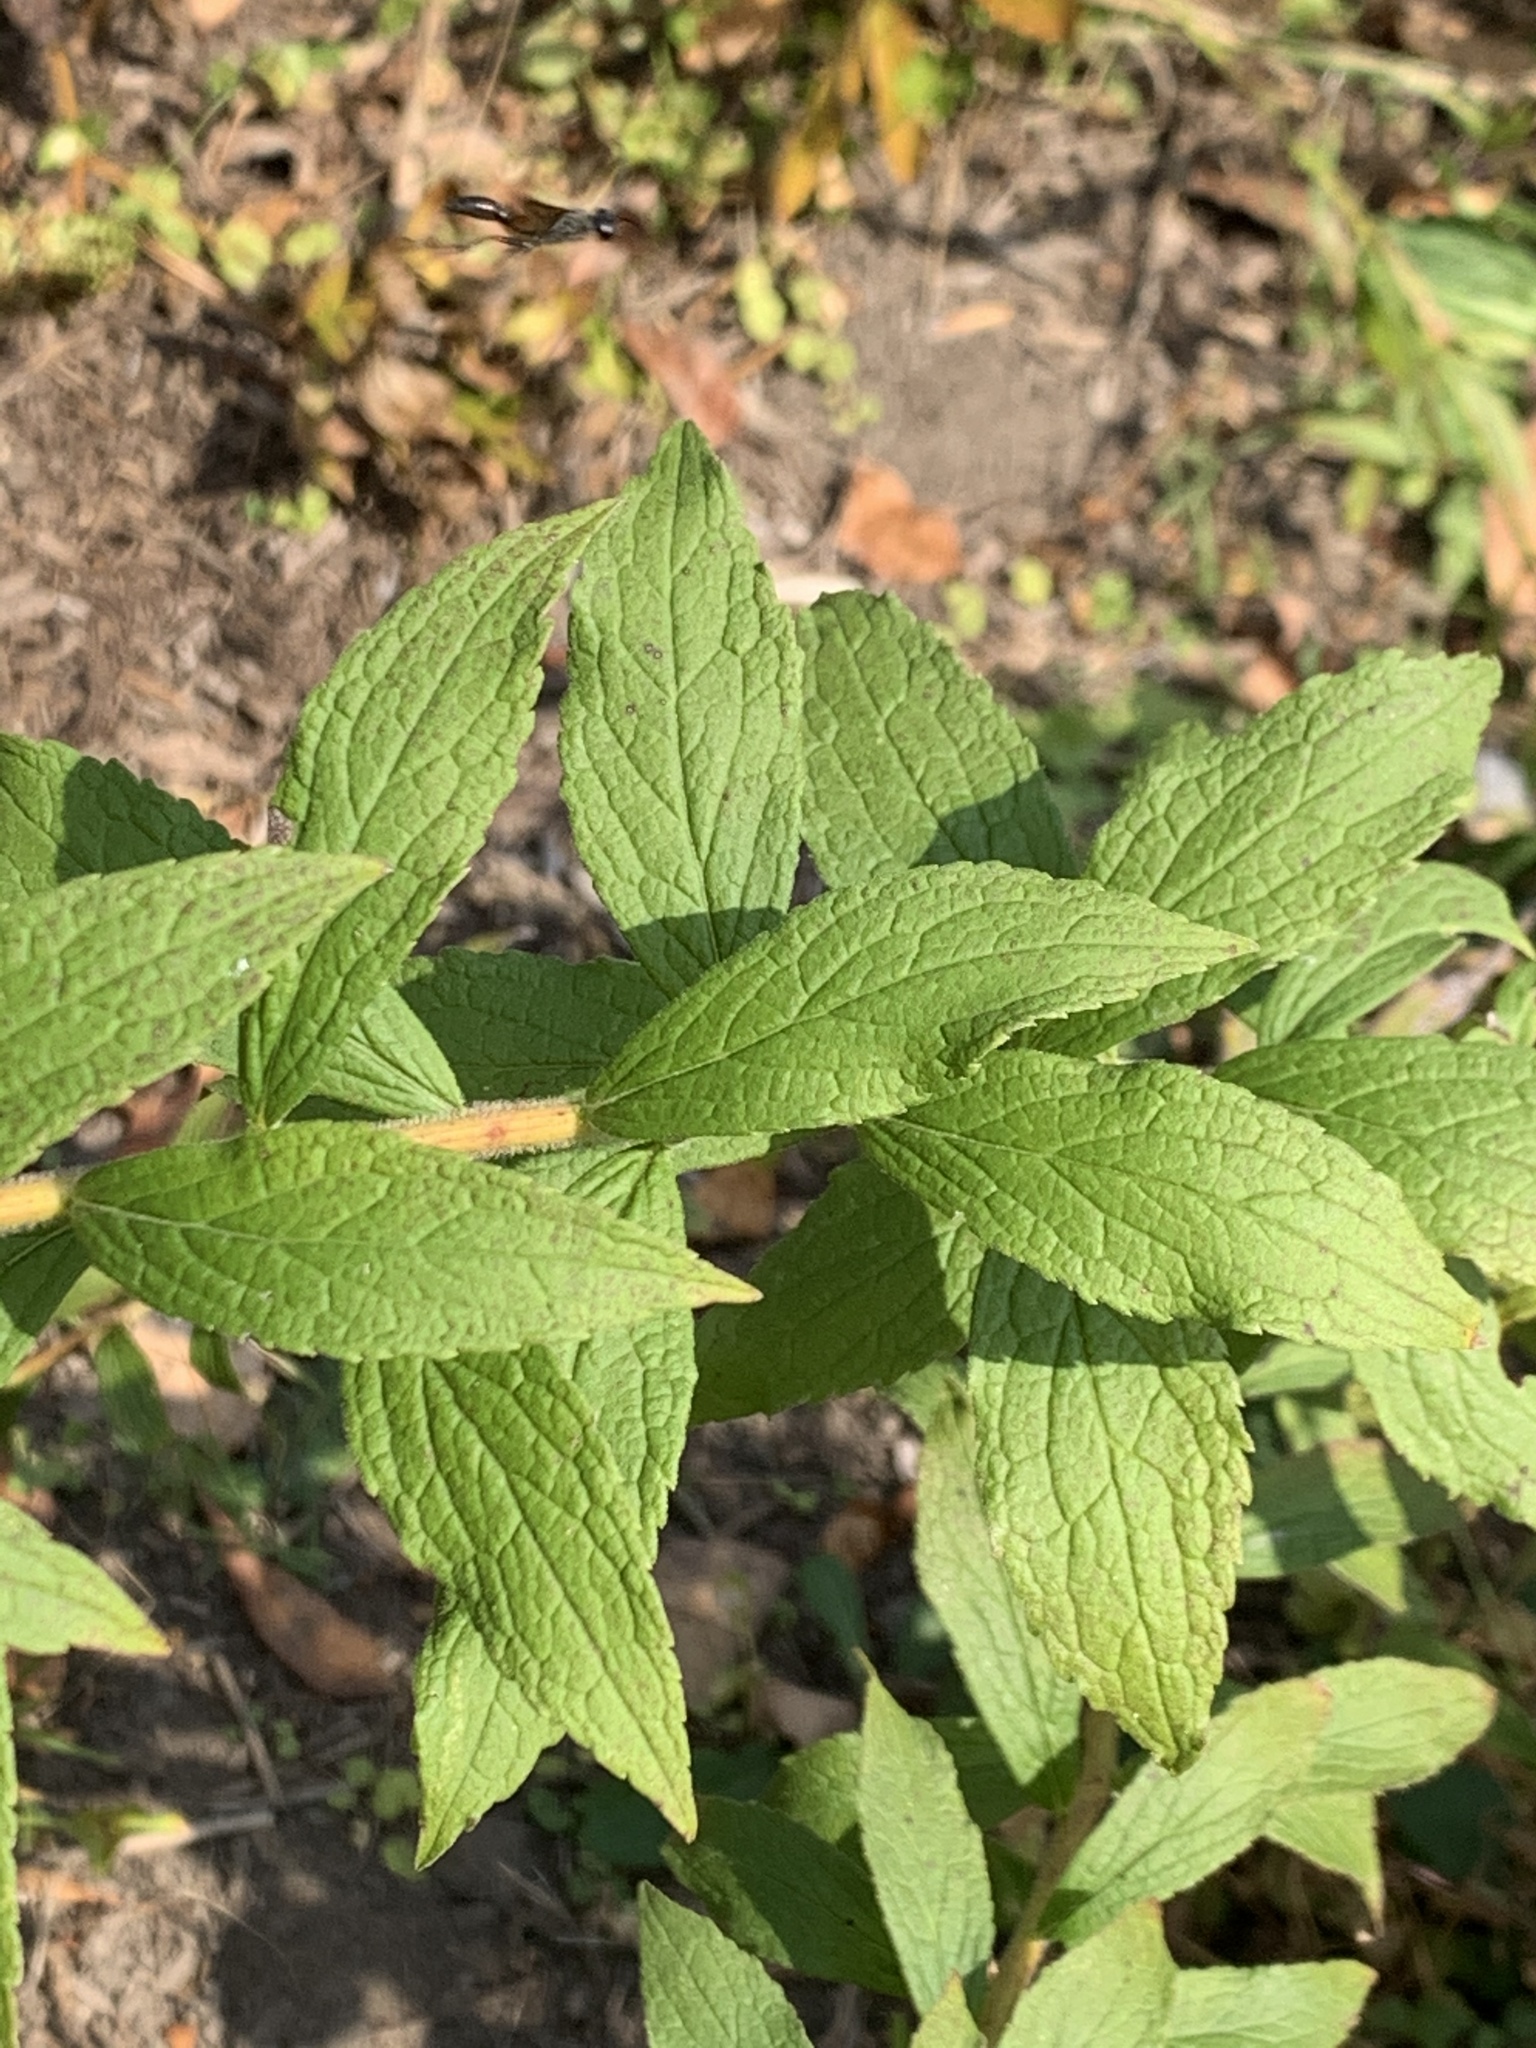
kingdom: Plantae
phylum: Tracheophyta
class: Magnoliopsida
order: Asterales
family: Asteraceae
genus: Solidago
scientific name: Solidago rugosa
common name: Rough-stemmed goldenrod
